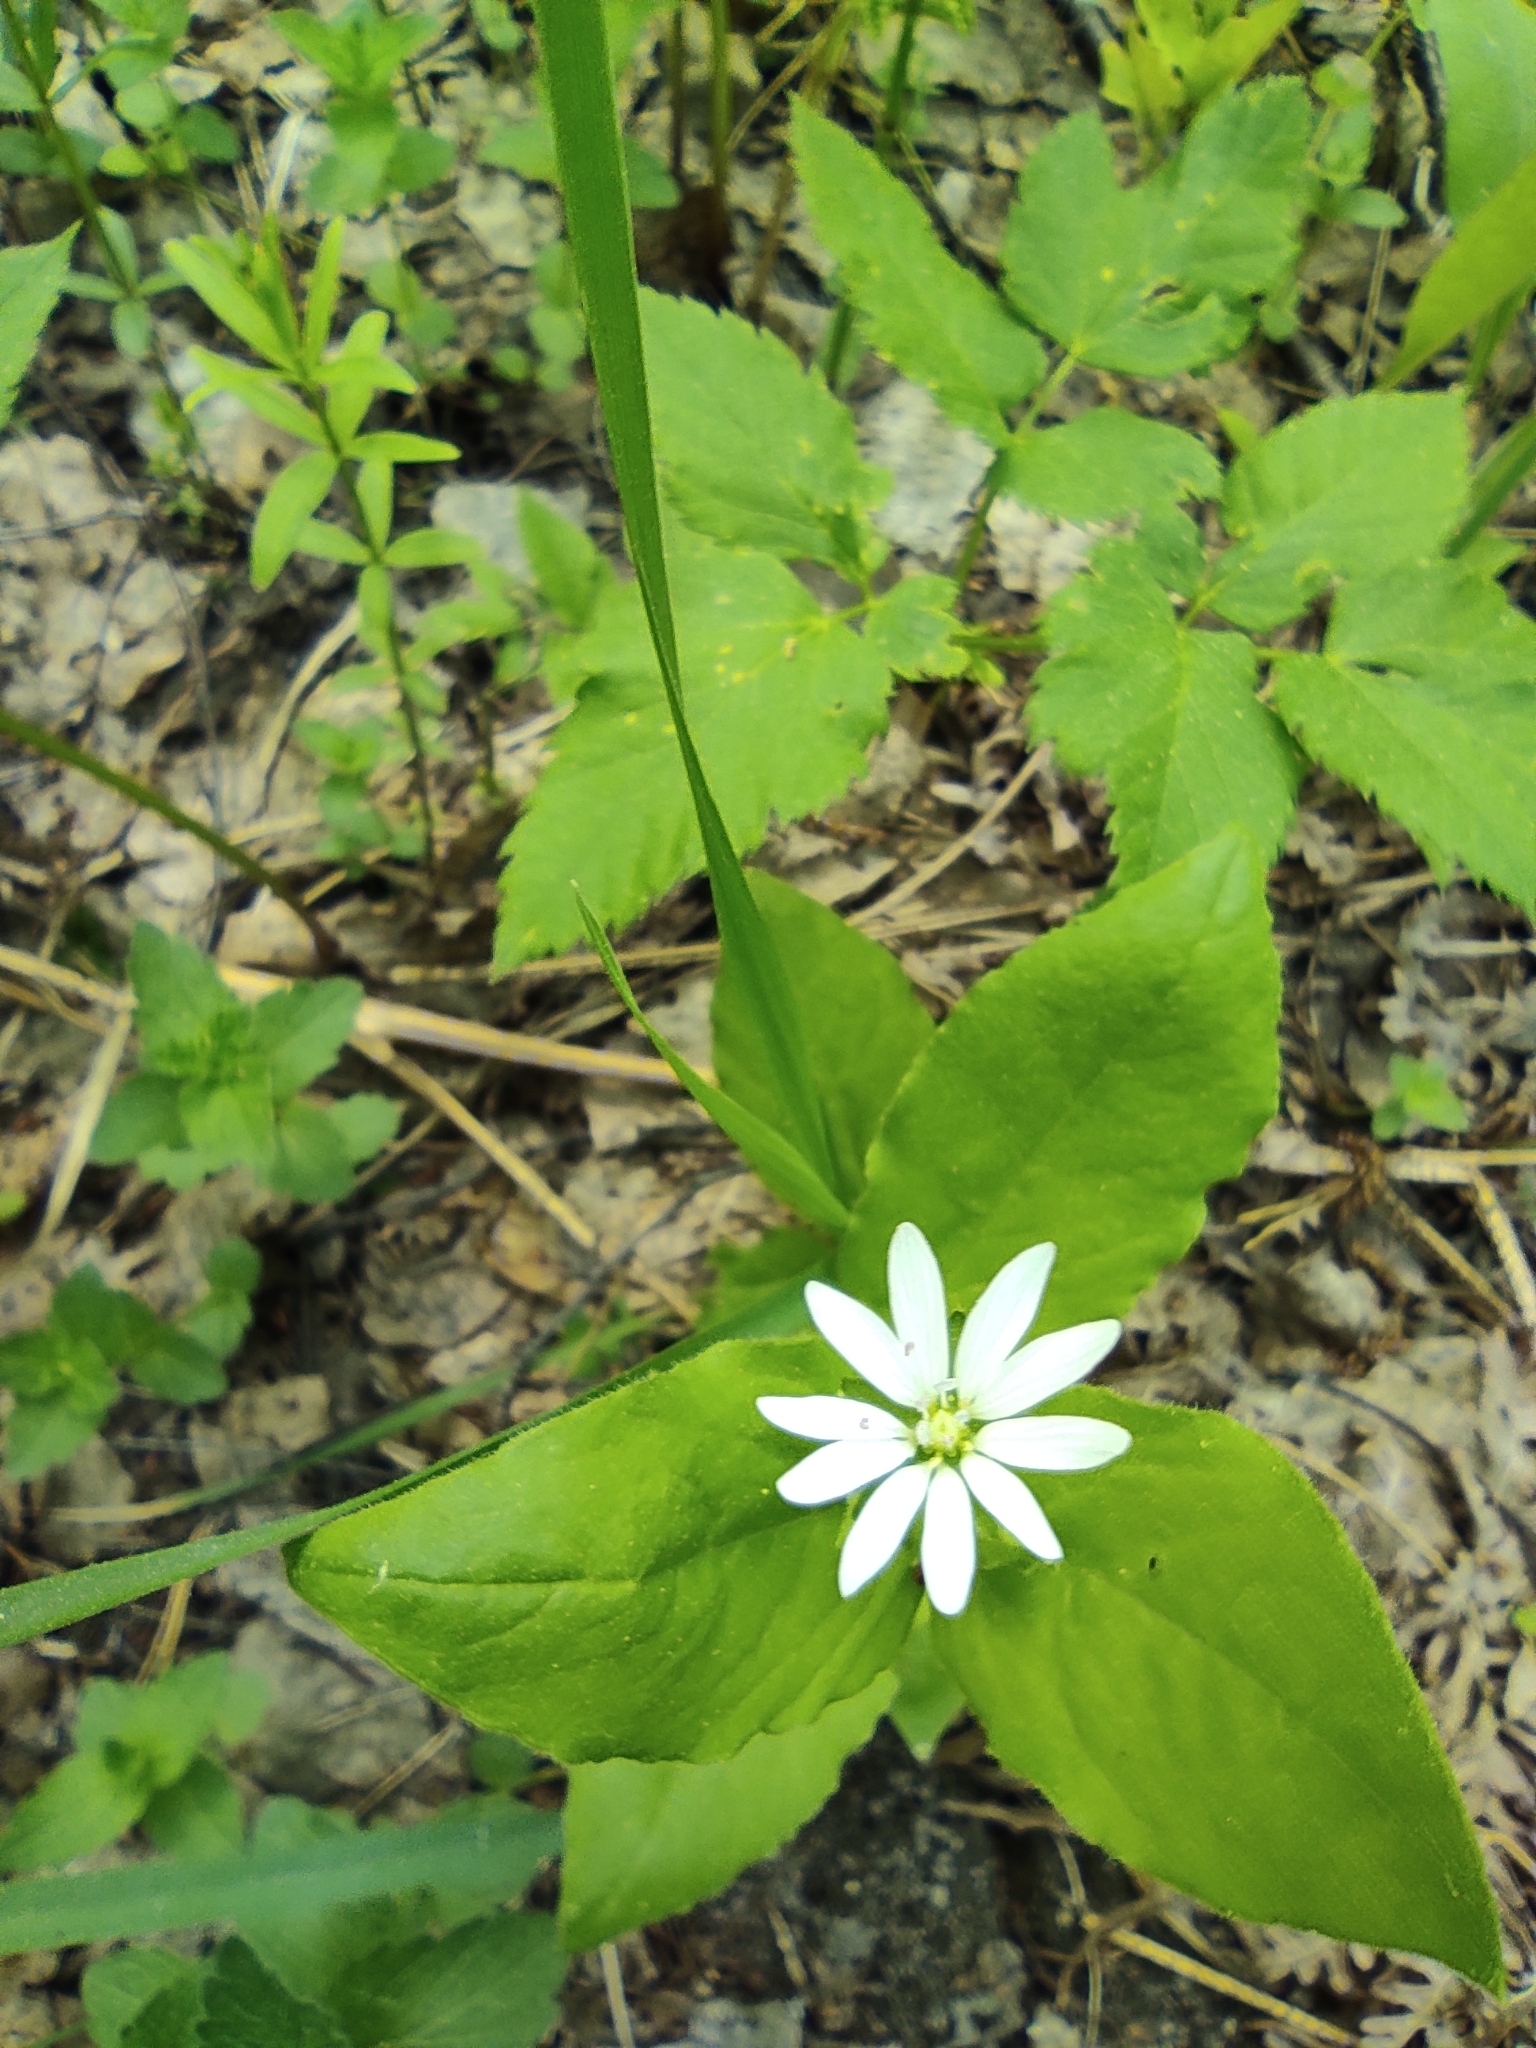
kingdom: Plantae
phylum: Tracheophyta
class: Magnoliopsida
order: Caryophyllales
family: Caryophyllaceae
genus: Stellaria
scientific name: Stellaria bungeana
